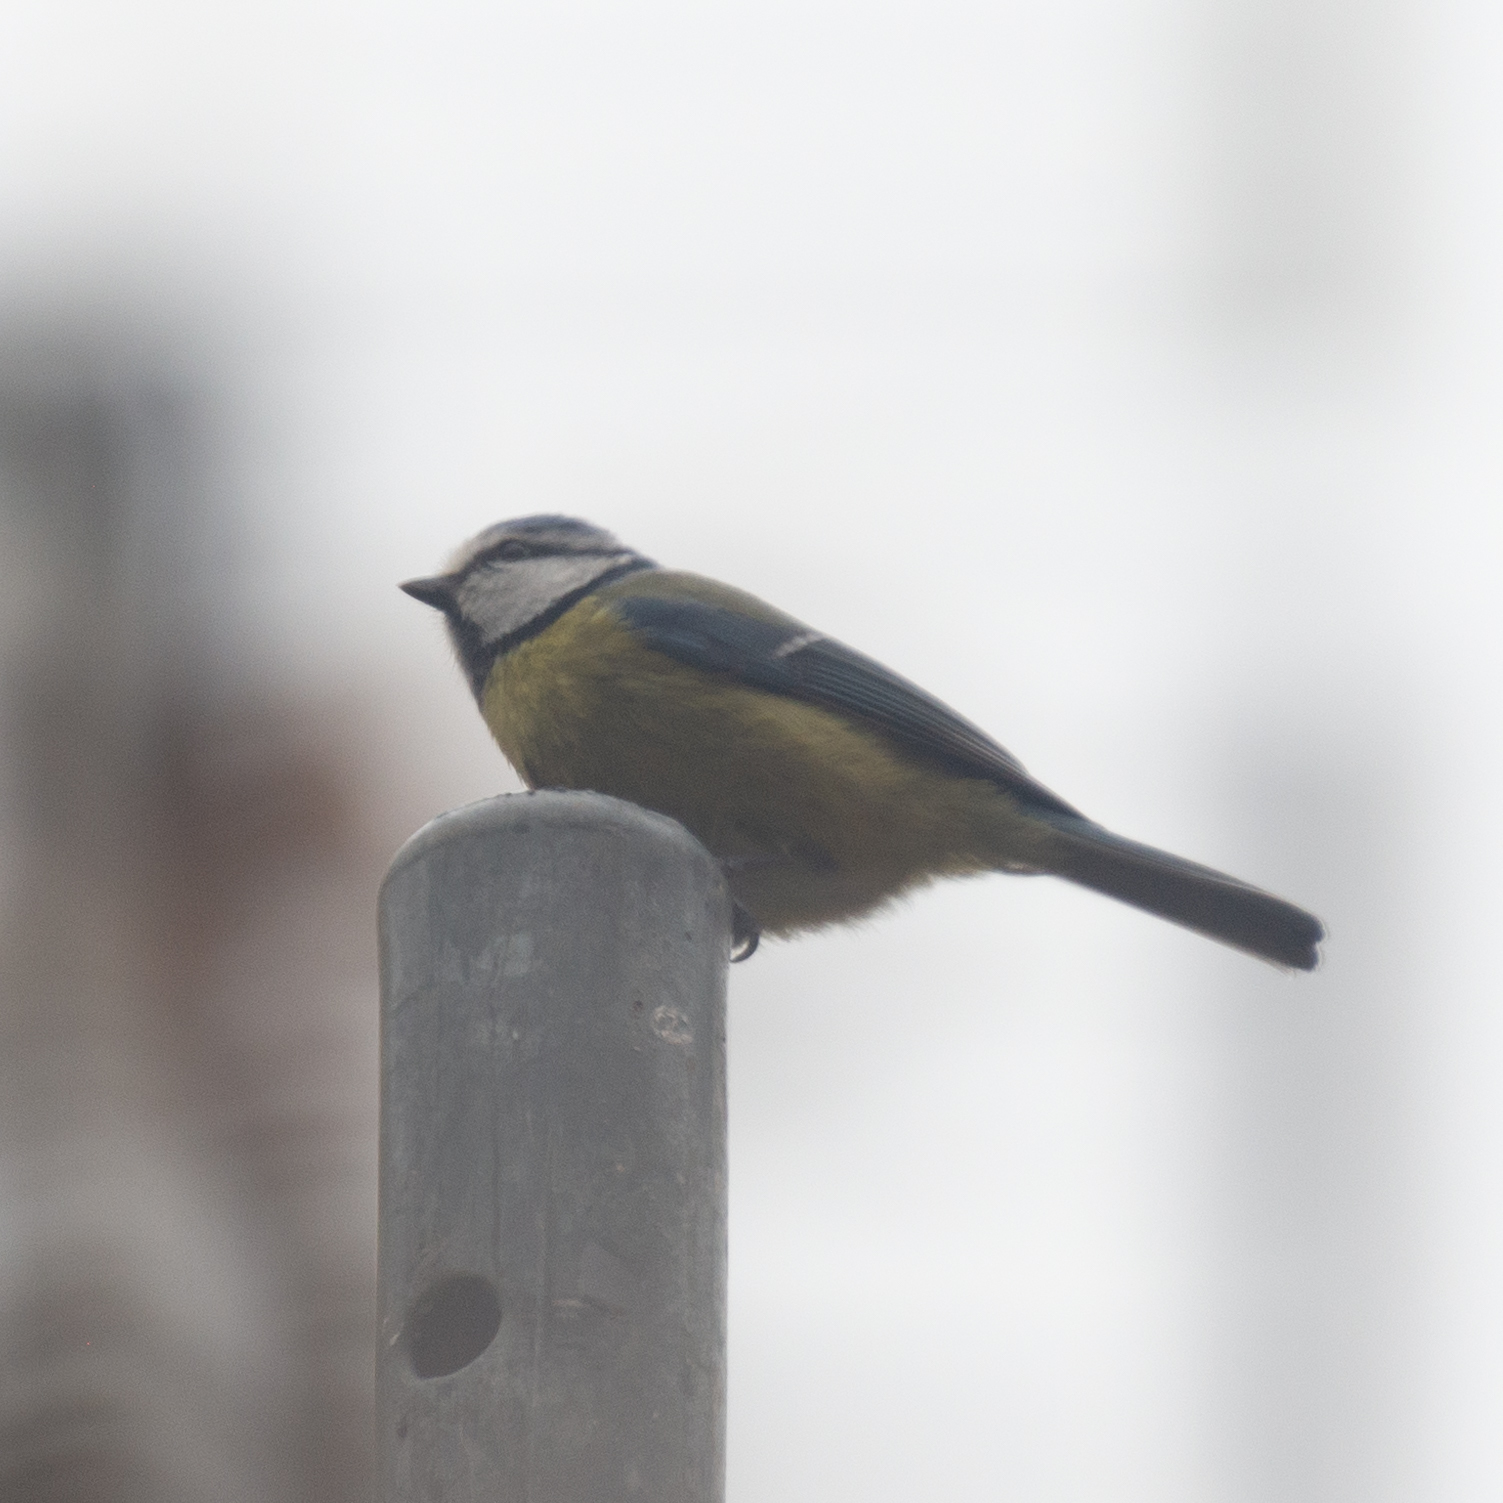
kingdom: Animalia
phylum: Chordata
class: Aves
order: Passeriformes
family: Paridae
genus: Cyanistes
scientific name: Cyanistes caeruleus
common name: Eurasian blue tit
